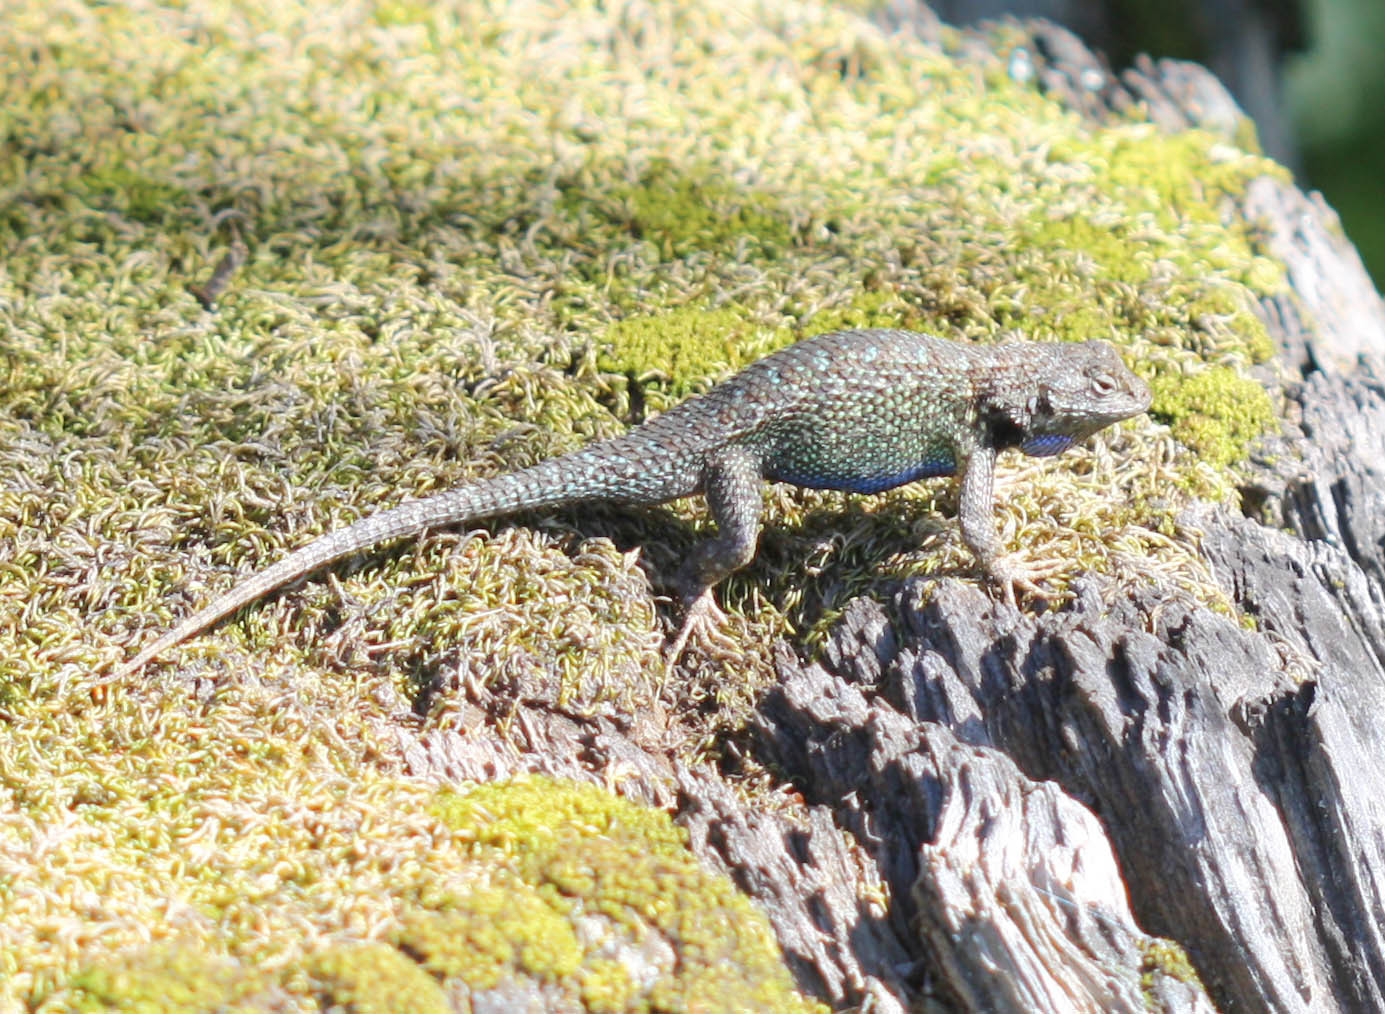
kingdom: Animalia
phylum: Chordata
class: Squamata
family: Phrynosomatidae
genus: Sceloporus
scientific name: Sceloporus occidentalis
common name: Western fence lizard
